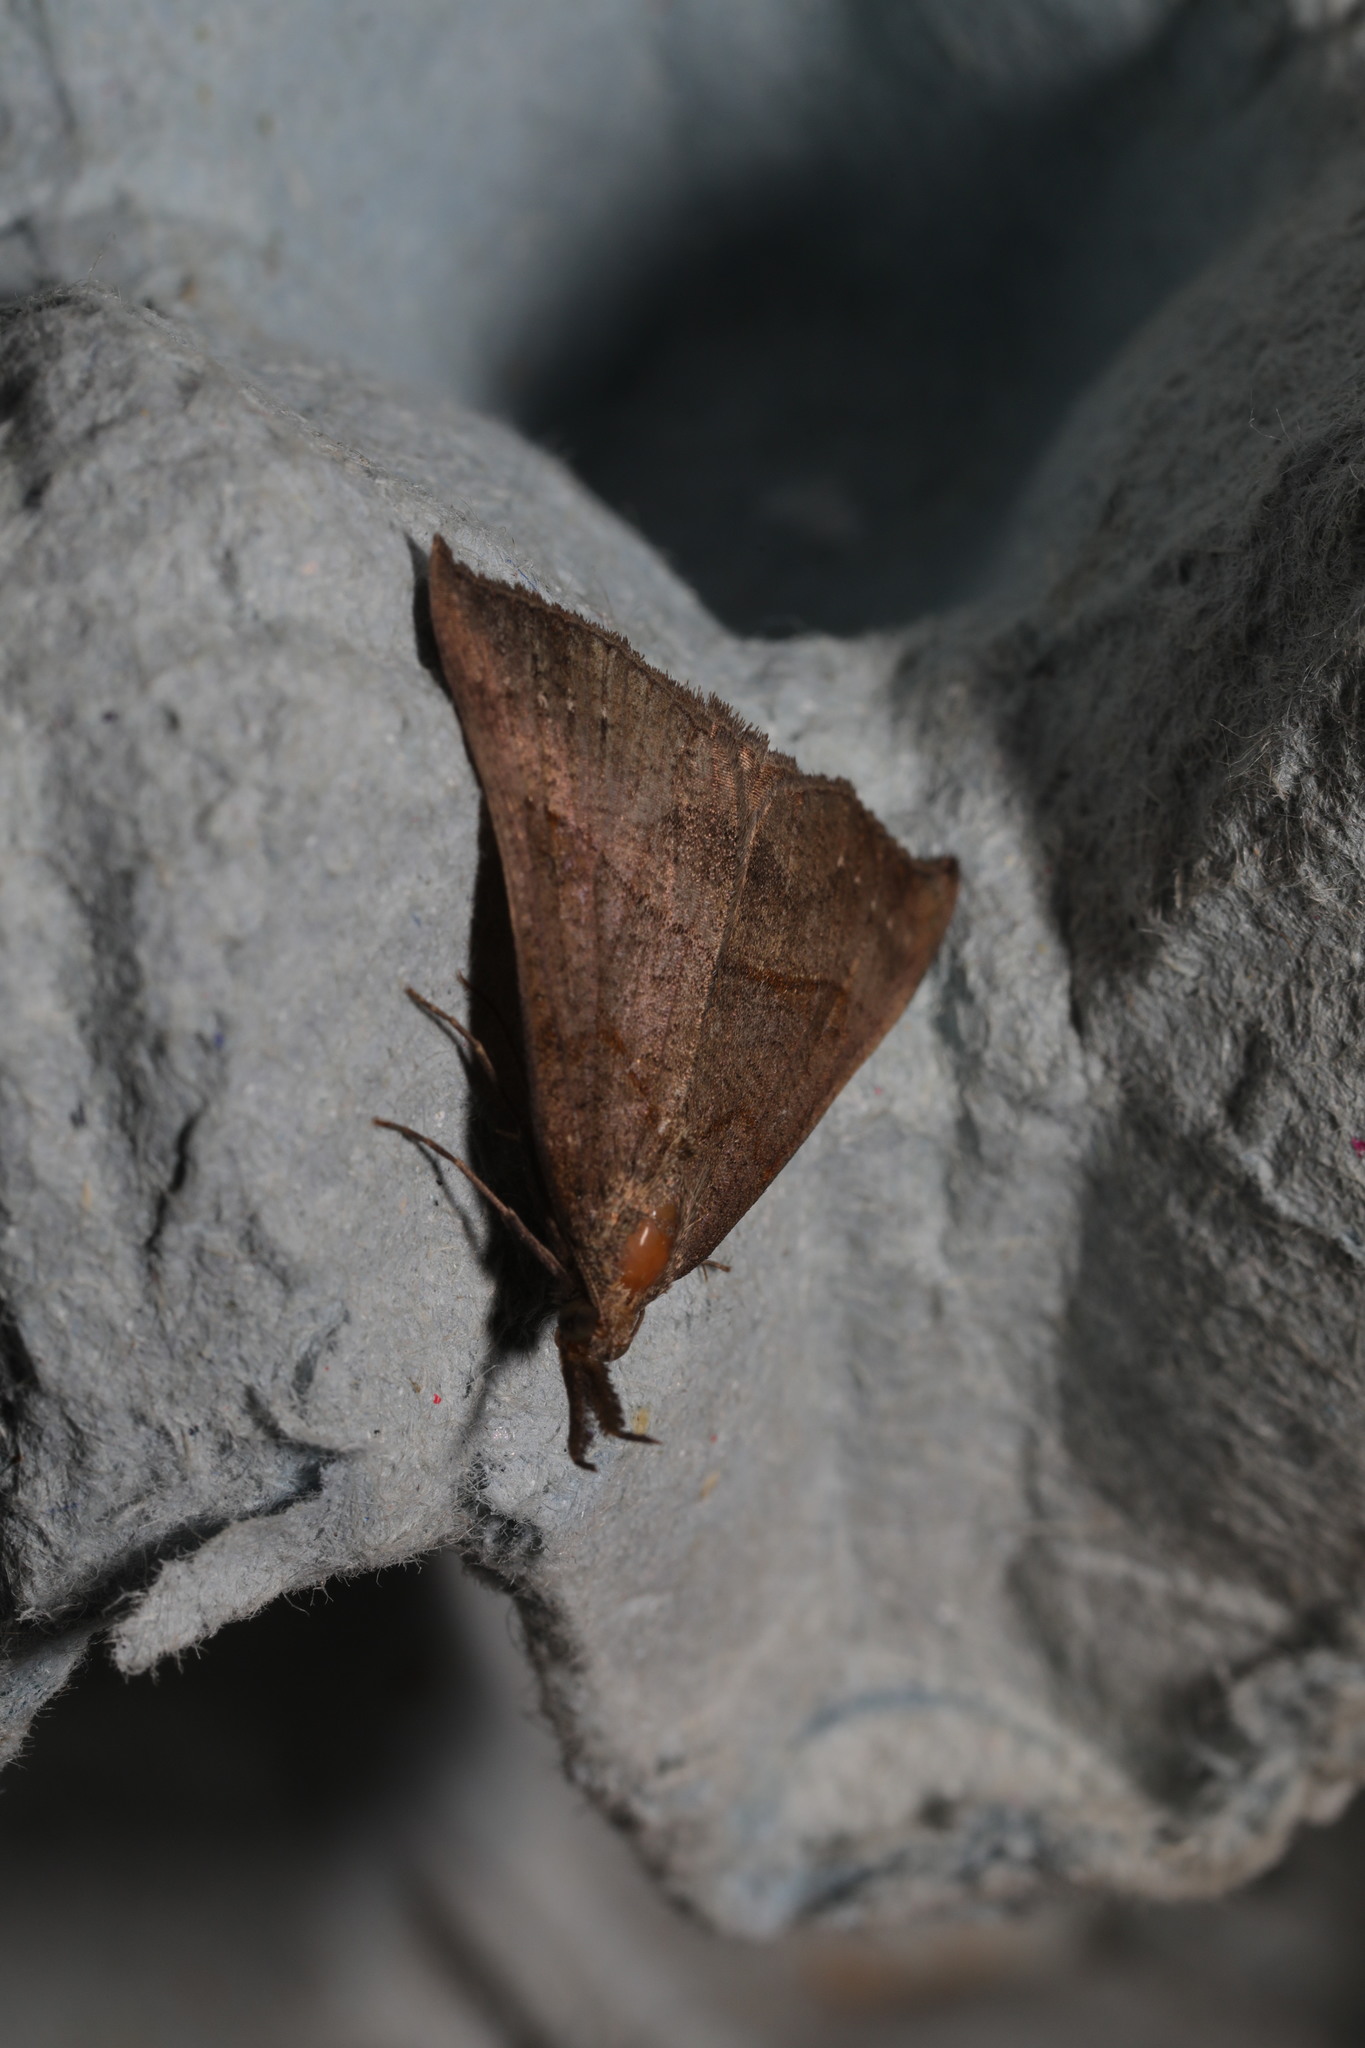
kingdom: Animalia
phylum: Arthropoda
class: Insecta
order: Lepidoptera
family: Erebidae
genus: Hypena
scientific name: Hypena proboscidalis
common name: Snout
